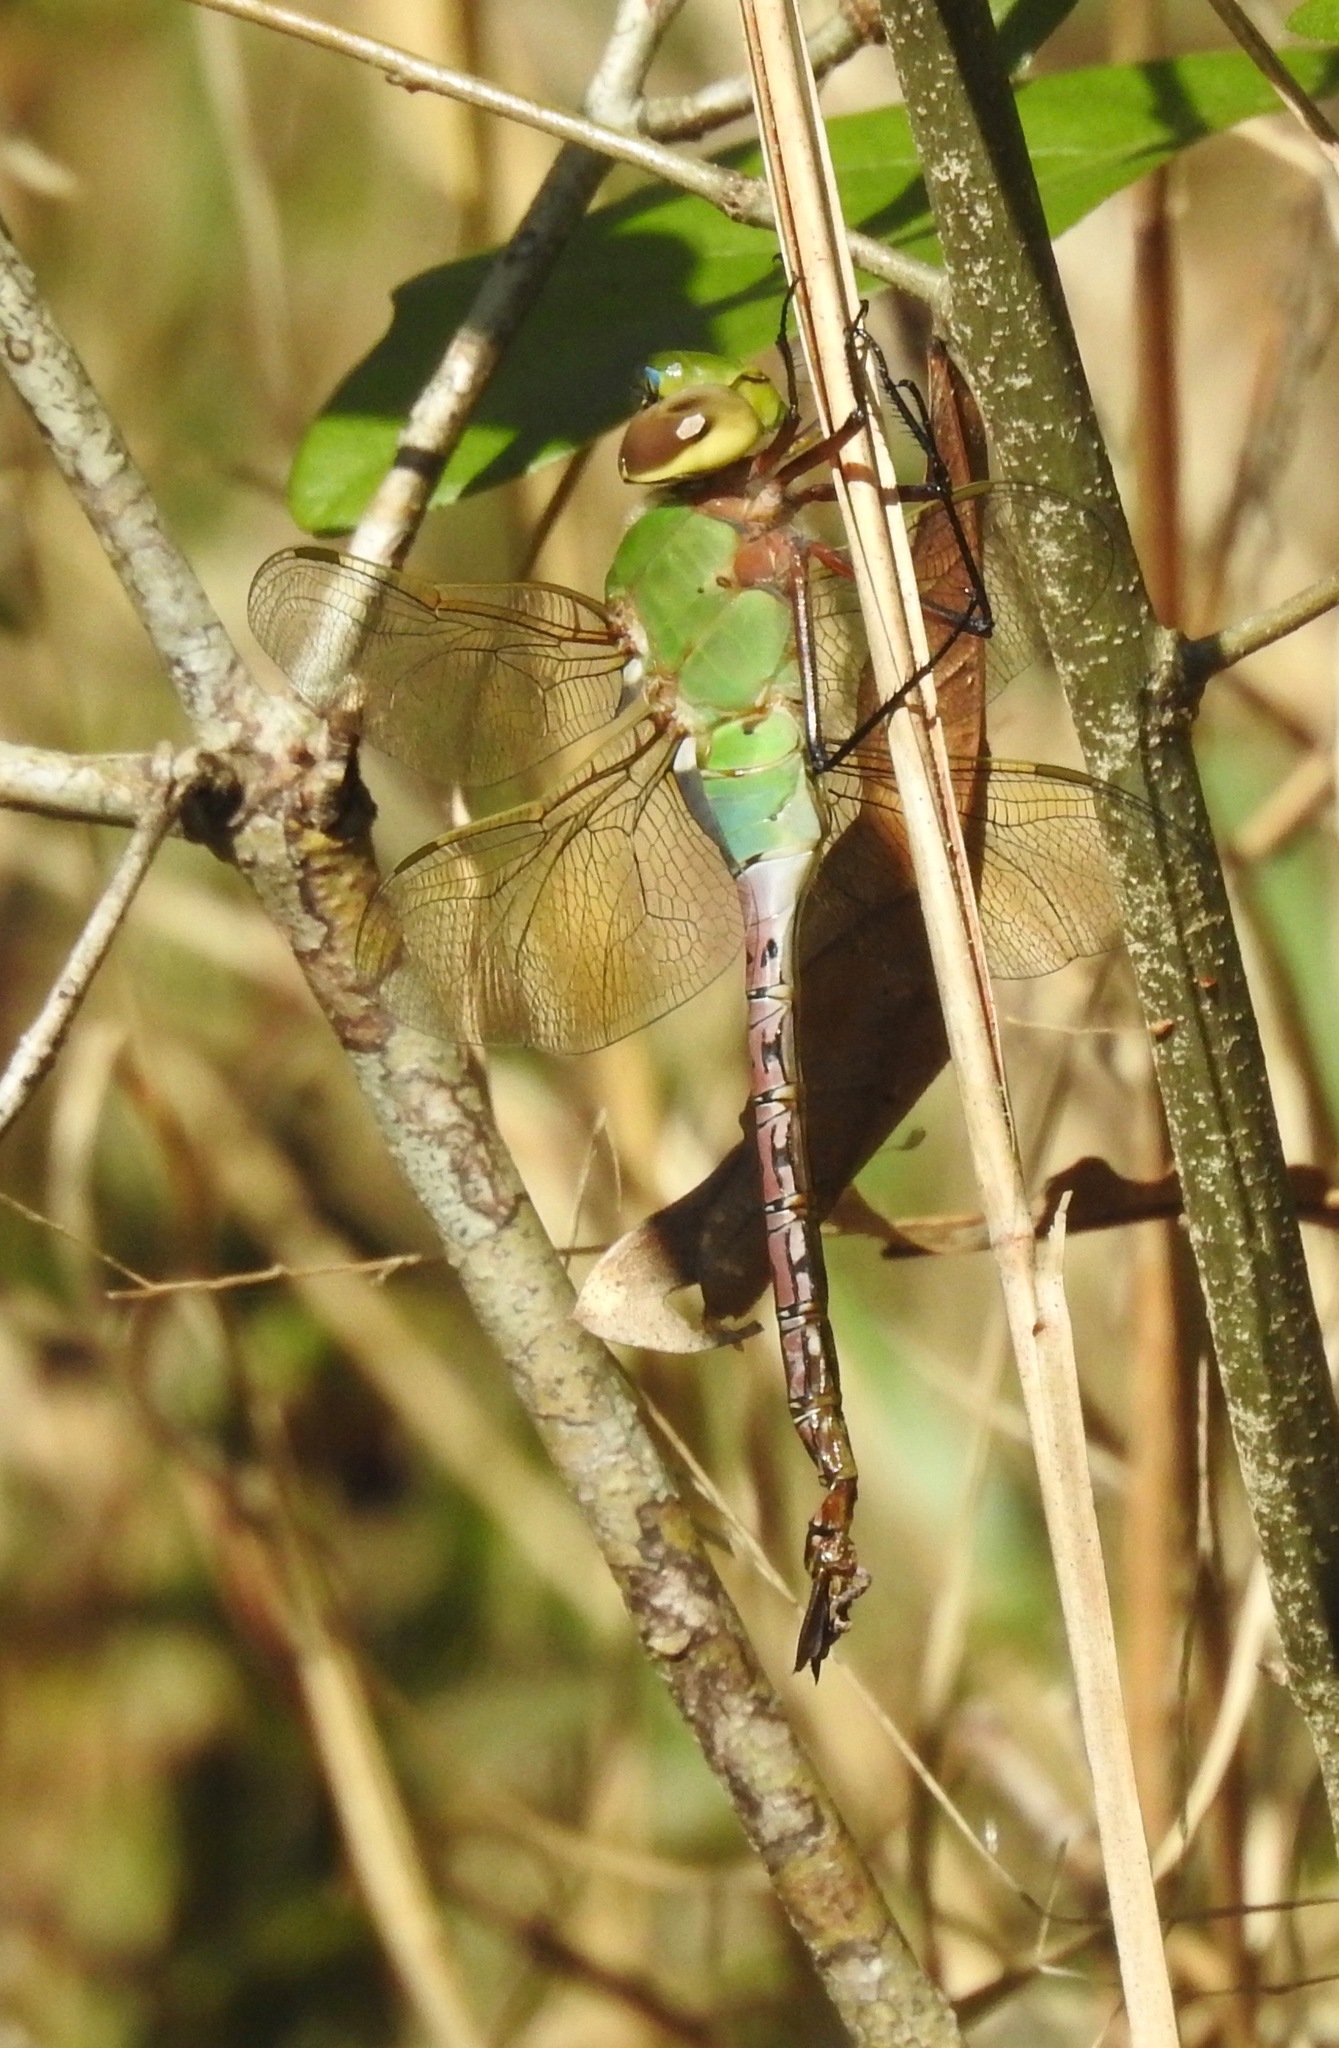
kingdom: Animalia
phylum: Arthropoda
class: Insecta
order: Odonata
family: Aeshnidae
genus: Anax
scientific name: Anax junius
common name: Common green darner
